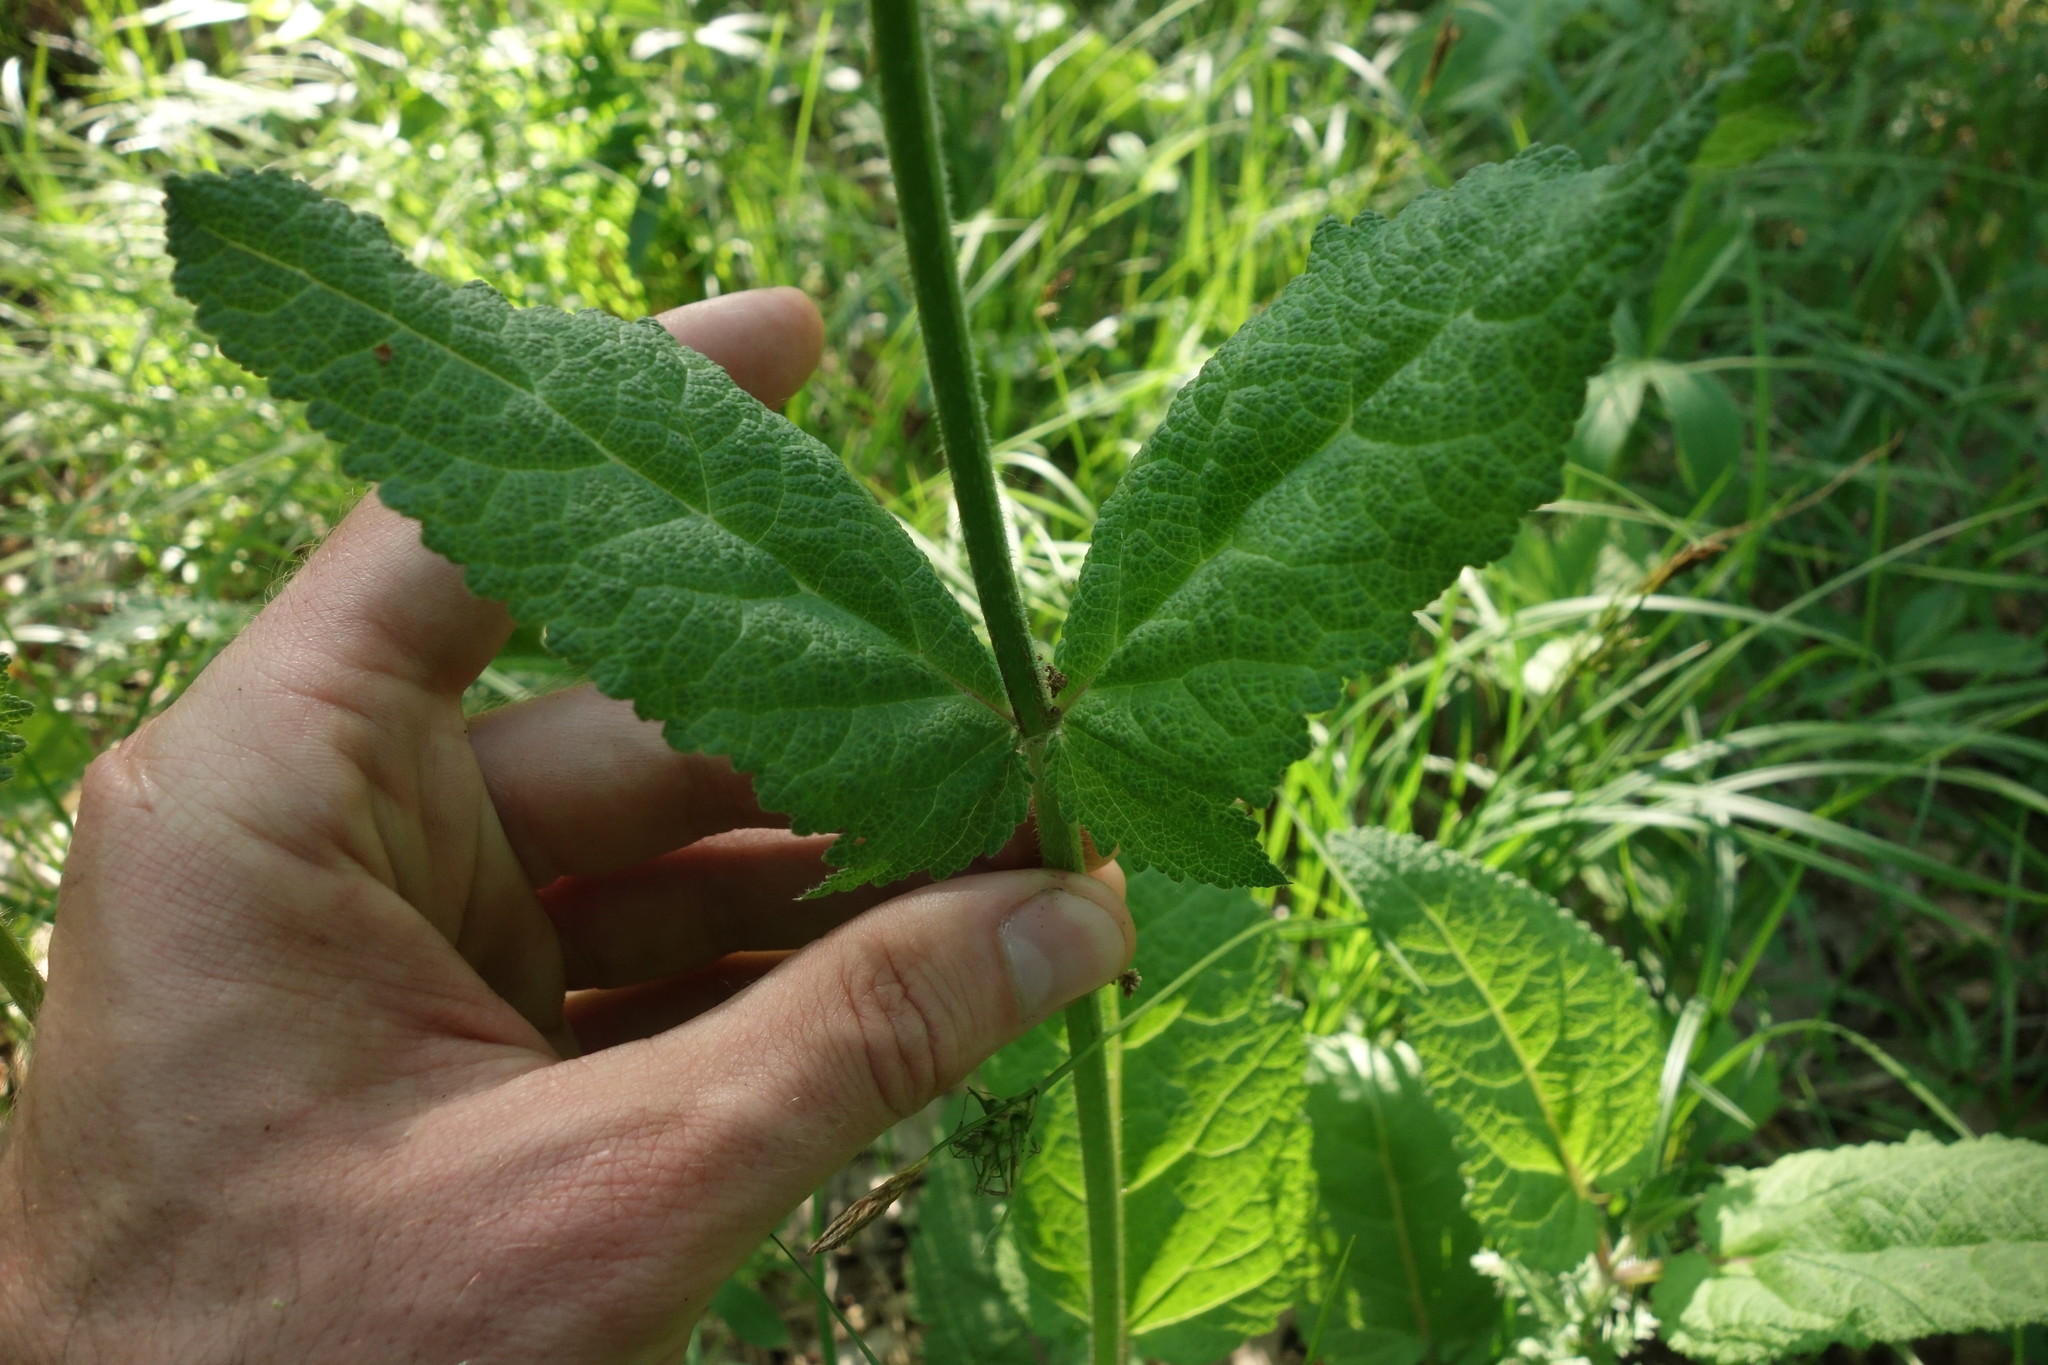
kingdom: Plantae
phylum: Tracheophyta
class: Magnoliopsida
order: Lamiales
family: Lamiaceae
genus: Salvia
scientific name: Salvia pratensis
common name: Meadow sage
